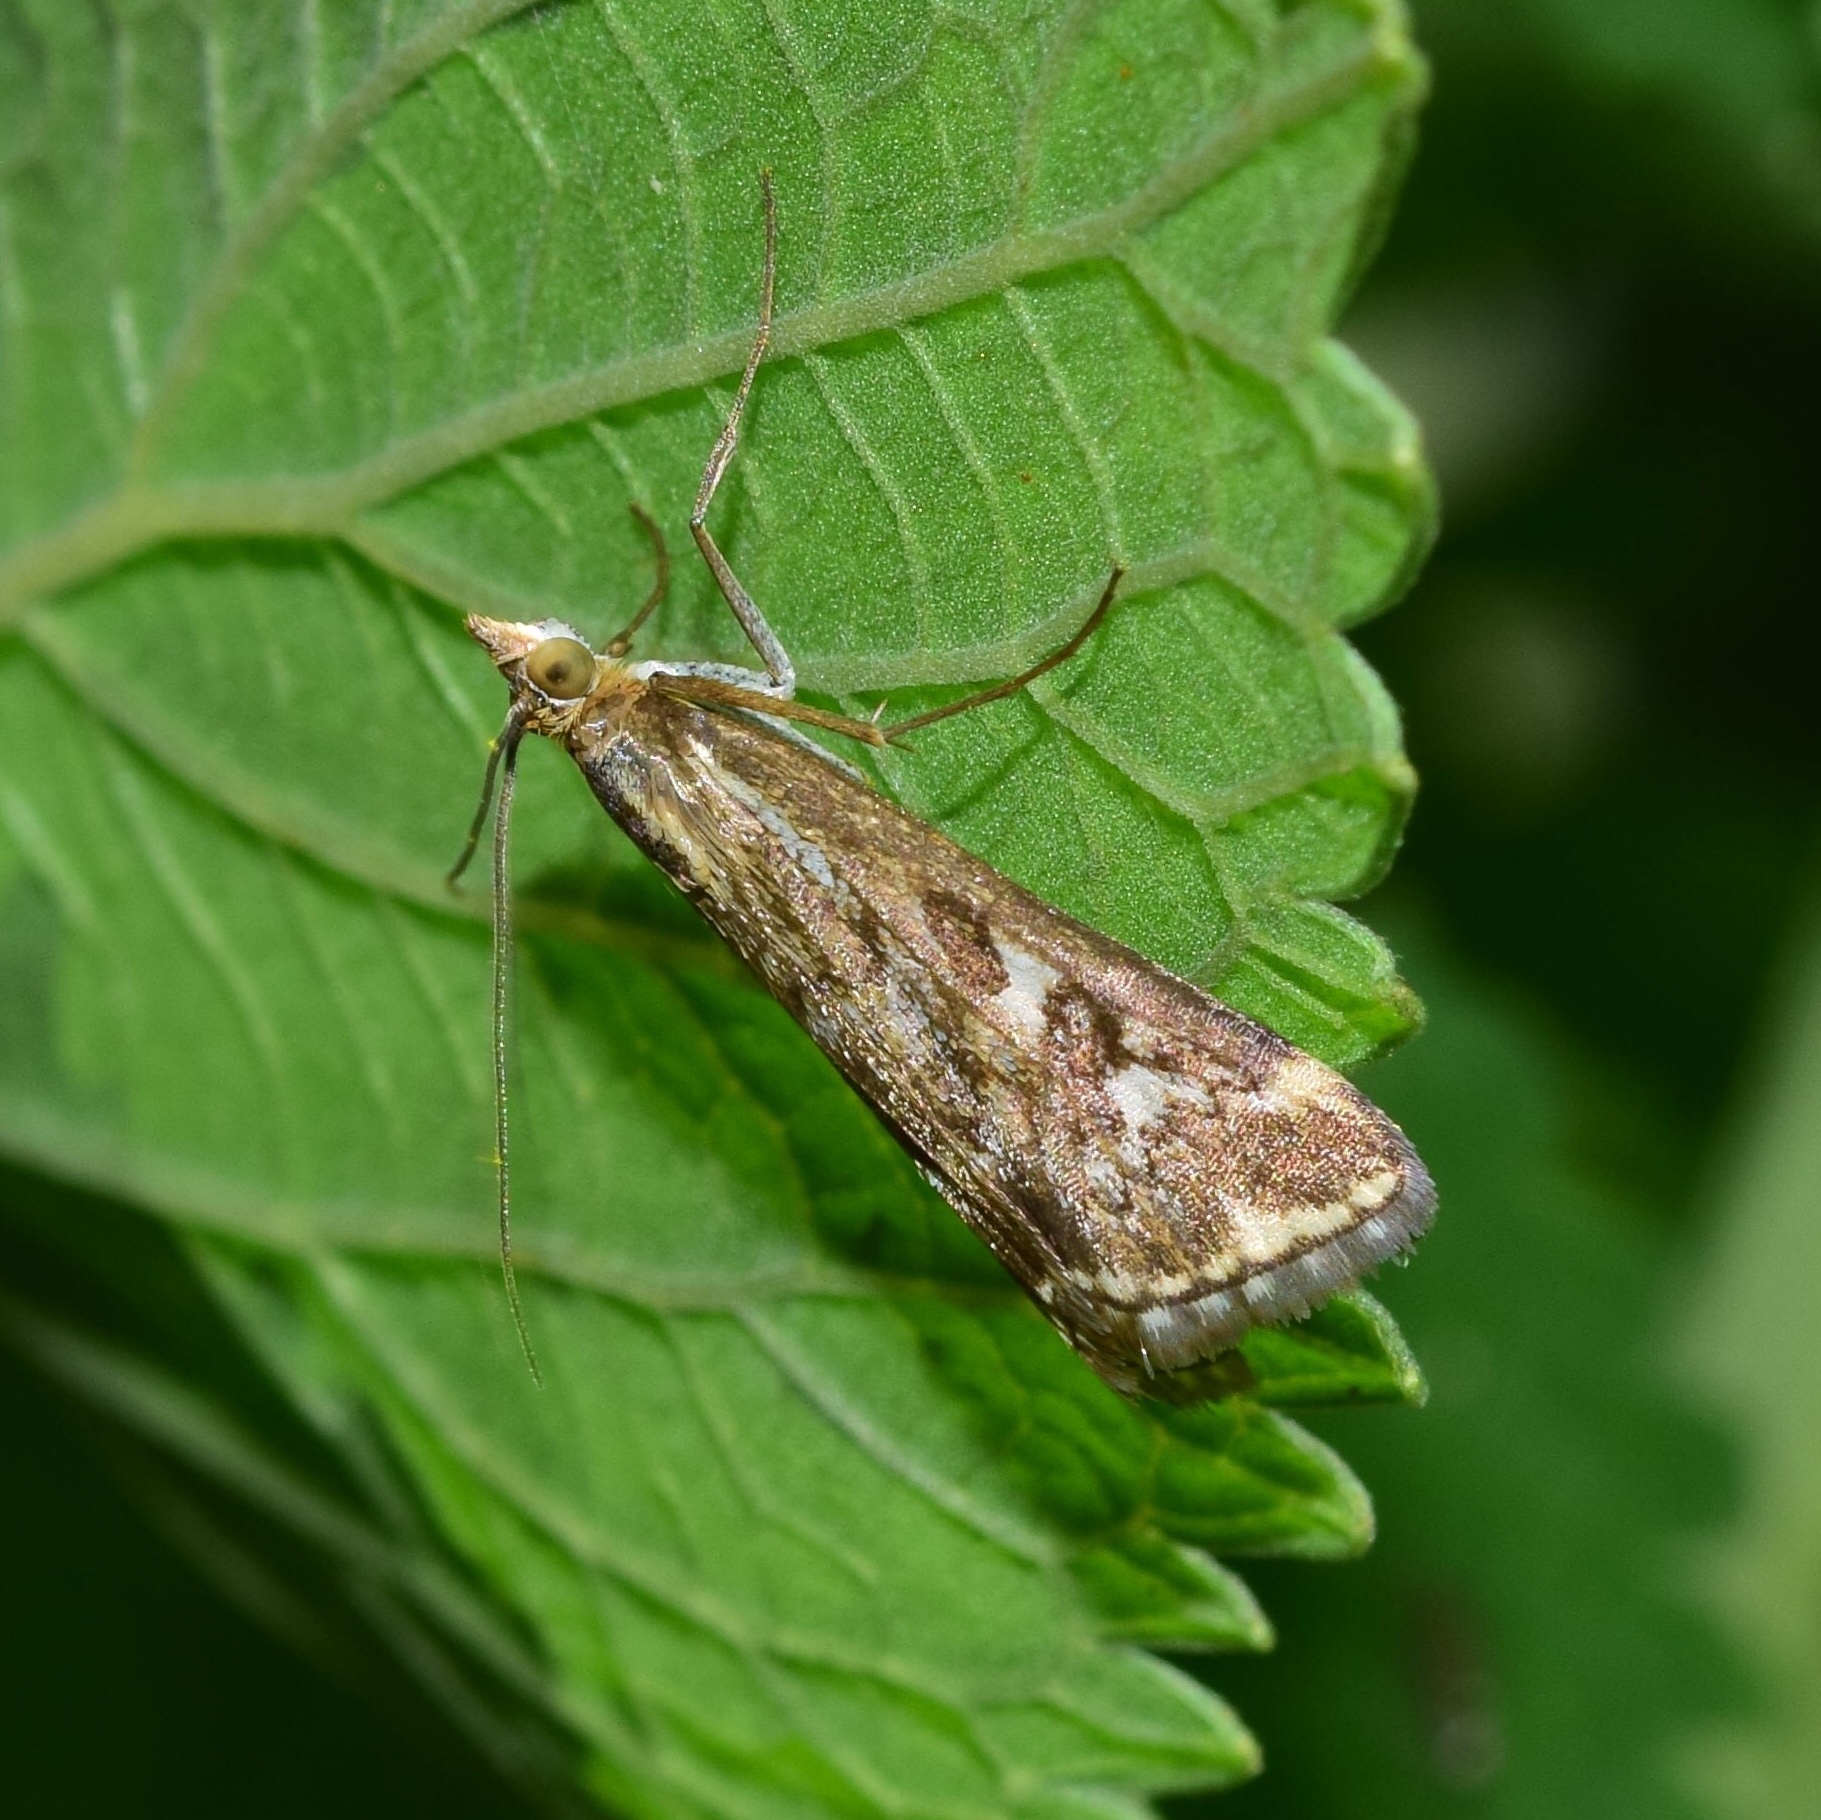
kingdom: Animalia
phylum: Arthropoda
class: Insecta
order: Lepidoptera
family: Crambidae
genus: Loxostege
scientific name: Loxostege frustalis
